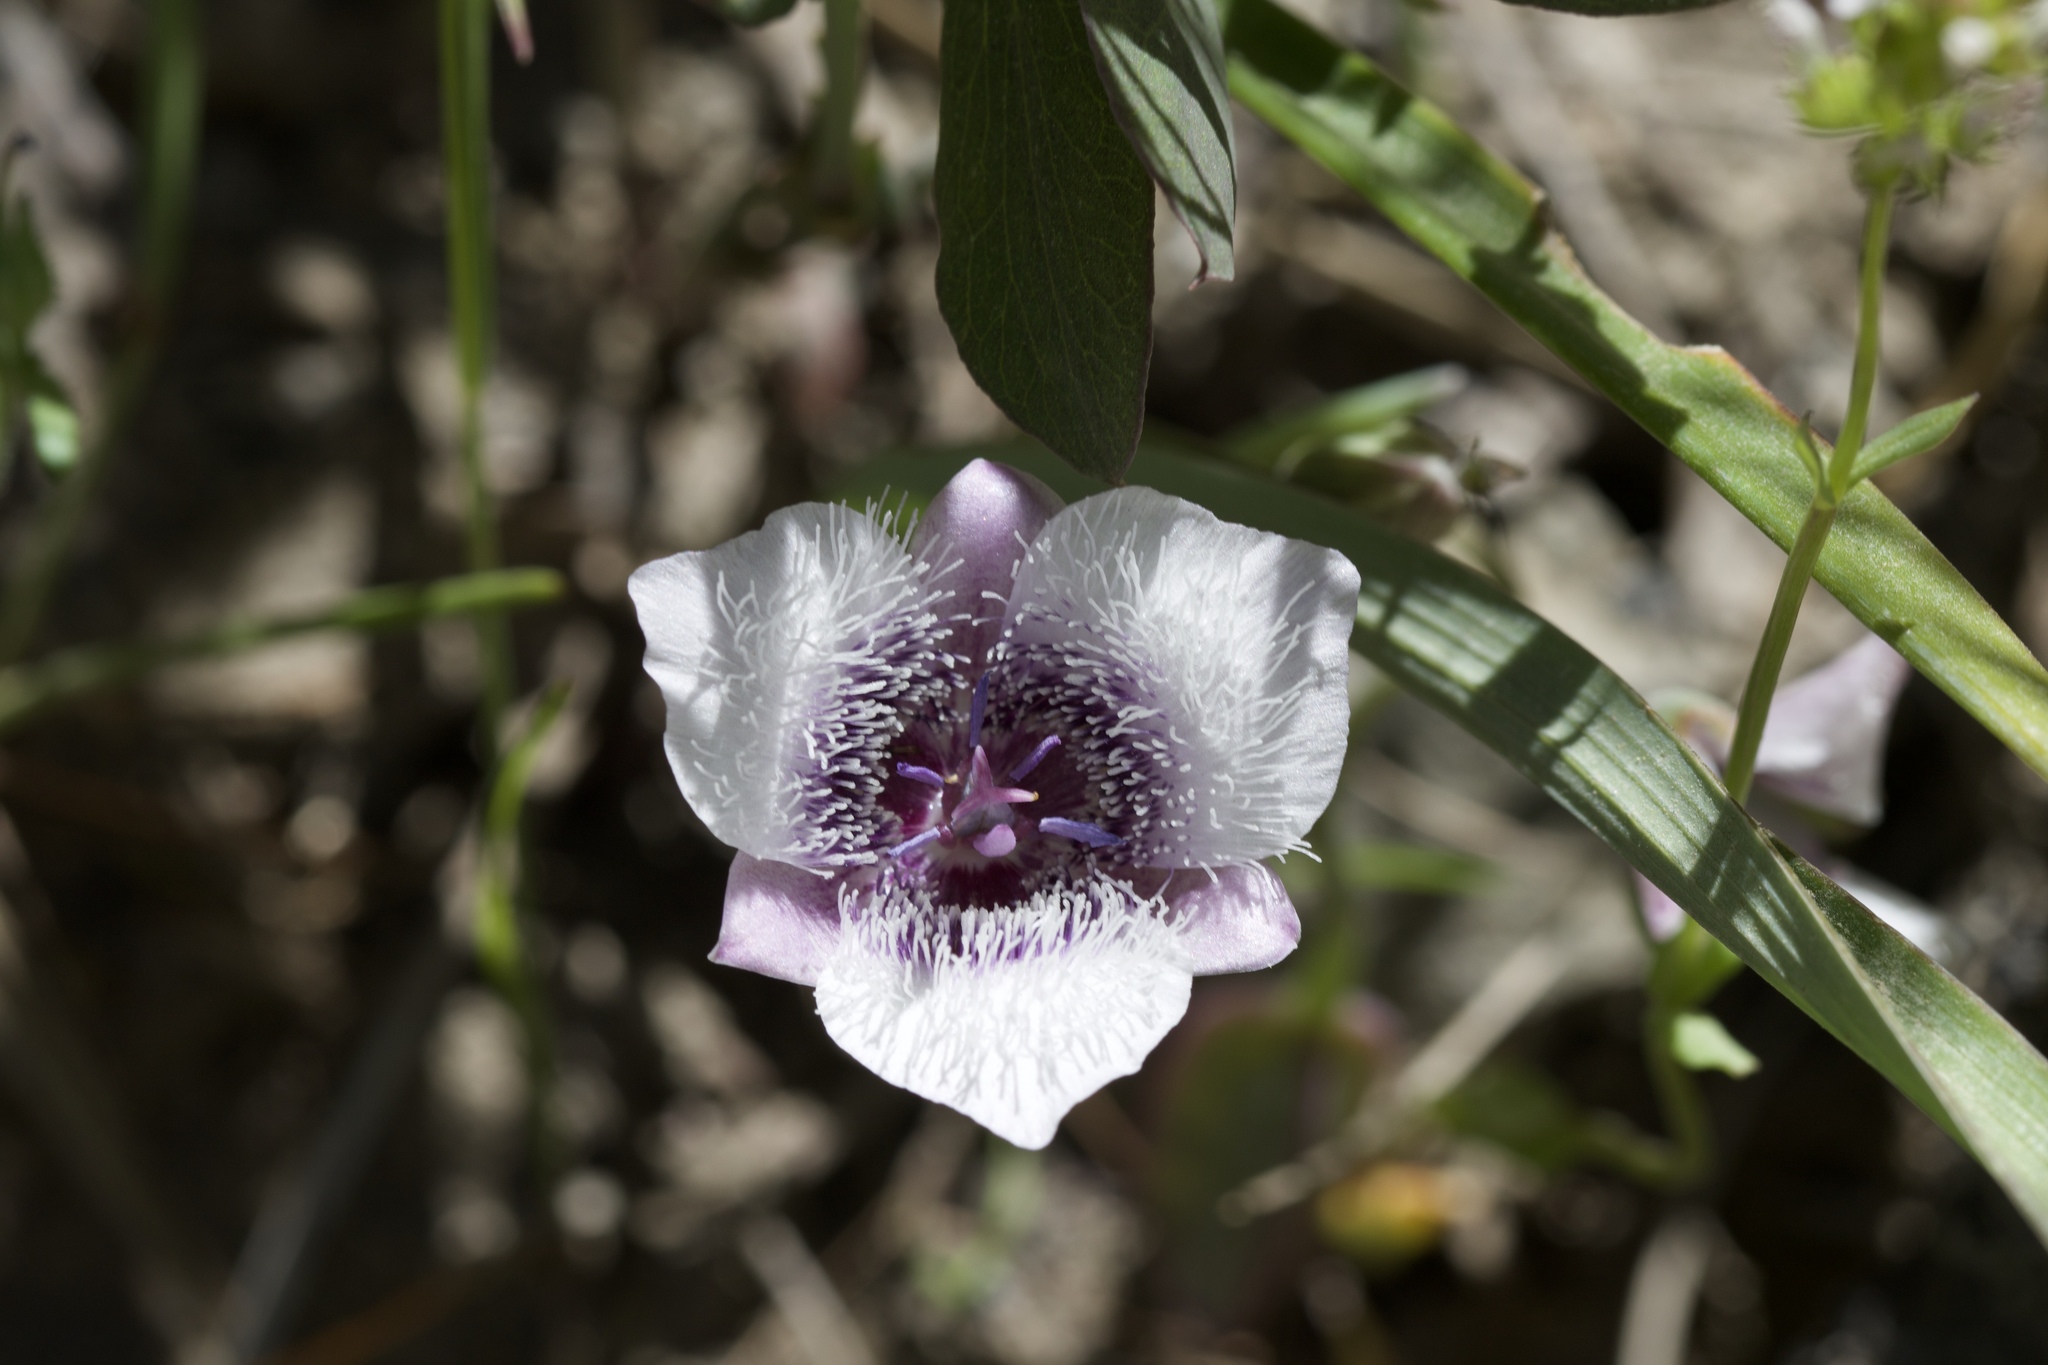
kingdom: Plantae
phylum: Tracheophyta
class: Liliopsida
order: Liliales
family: Liliaceae
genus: Calochortus
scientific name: Calochortus tolmiei
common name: Pussy-ears
